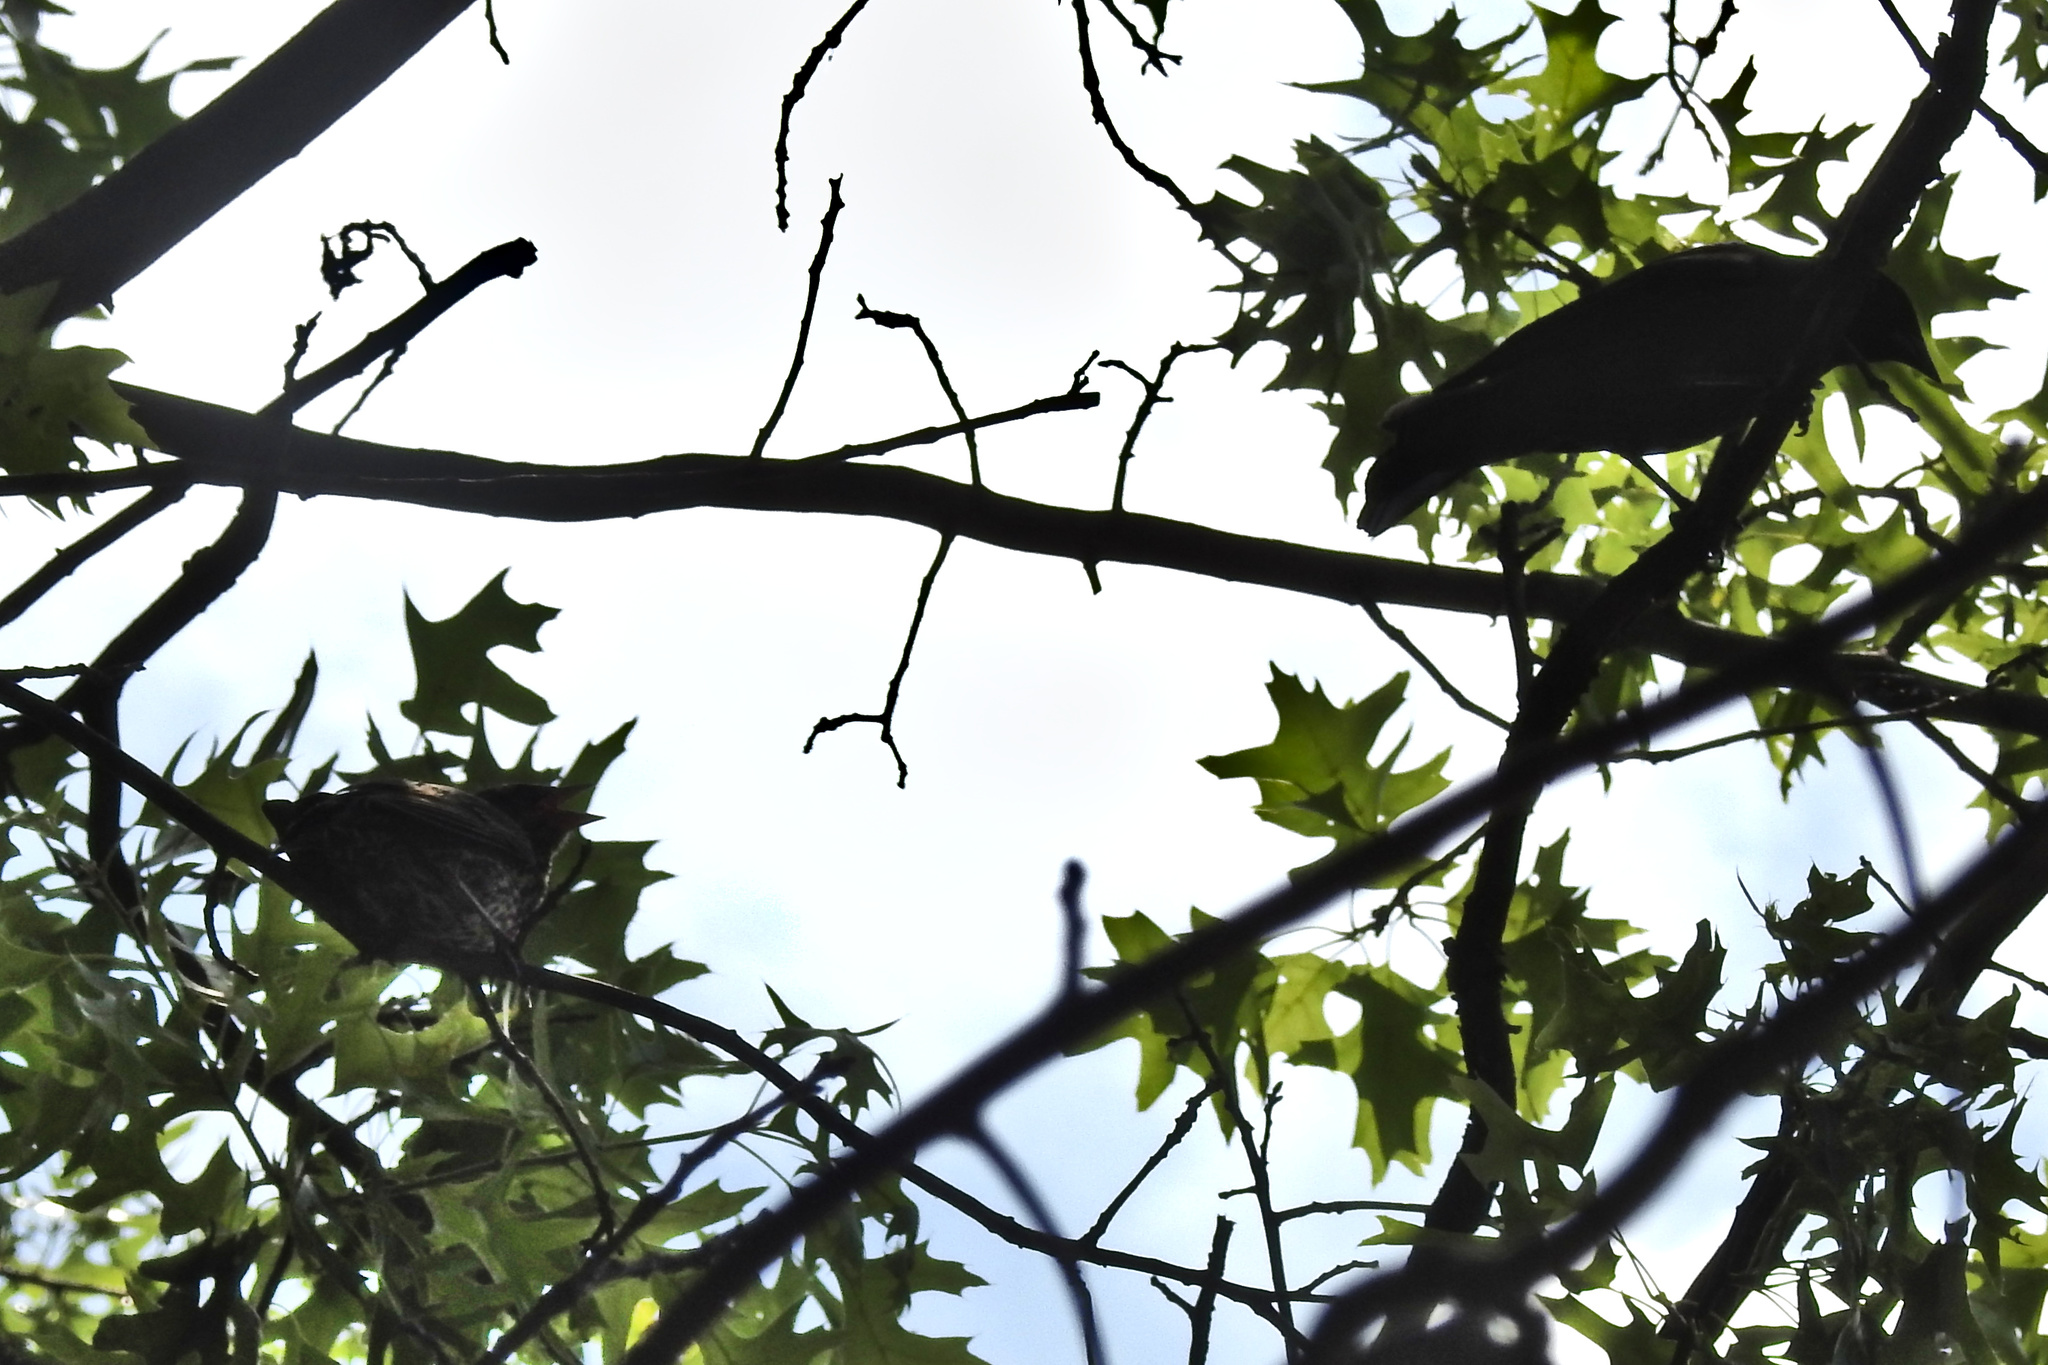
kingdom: Animalia
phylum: Chordata
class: Aves
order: Passeriformes
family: Icteridae
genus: Agelaius
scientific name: Agelaius phoeniceus
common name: Red-winged blackbird
